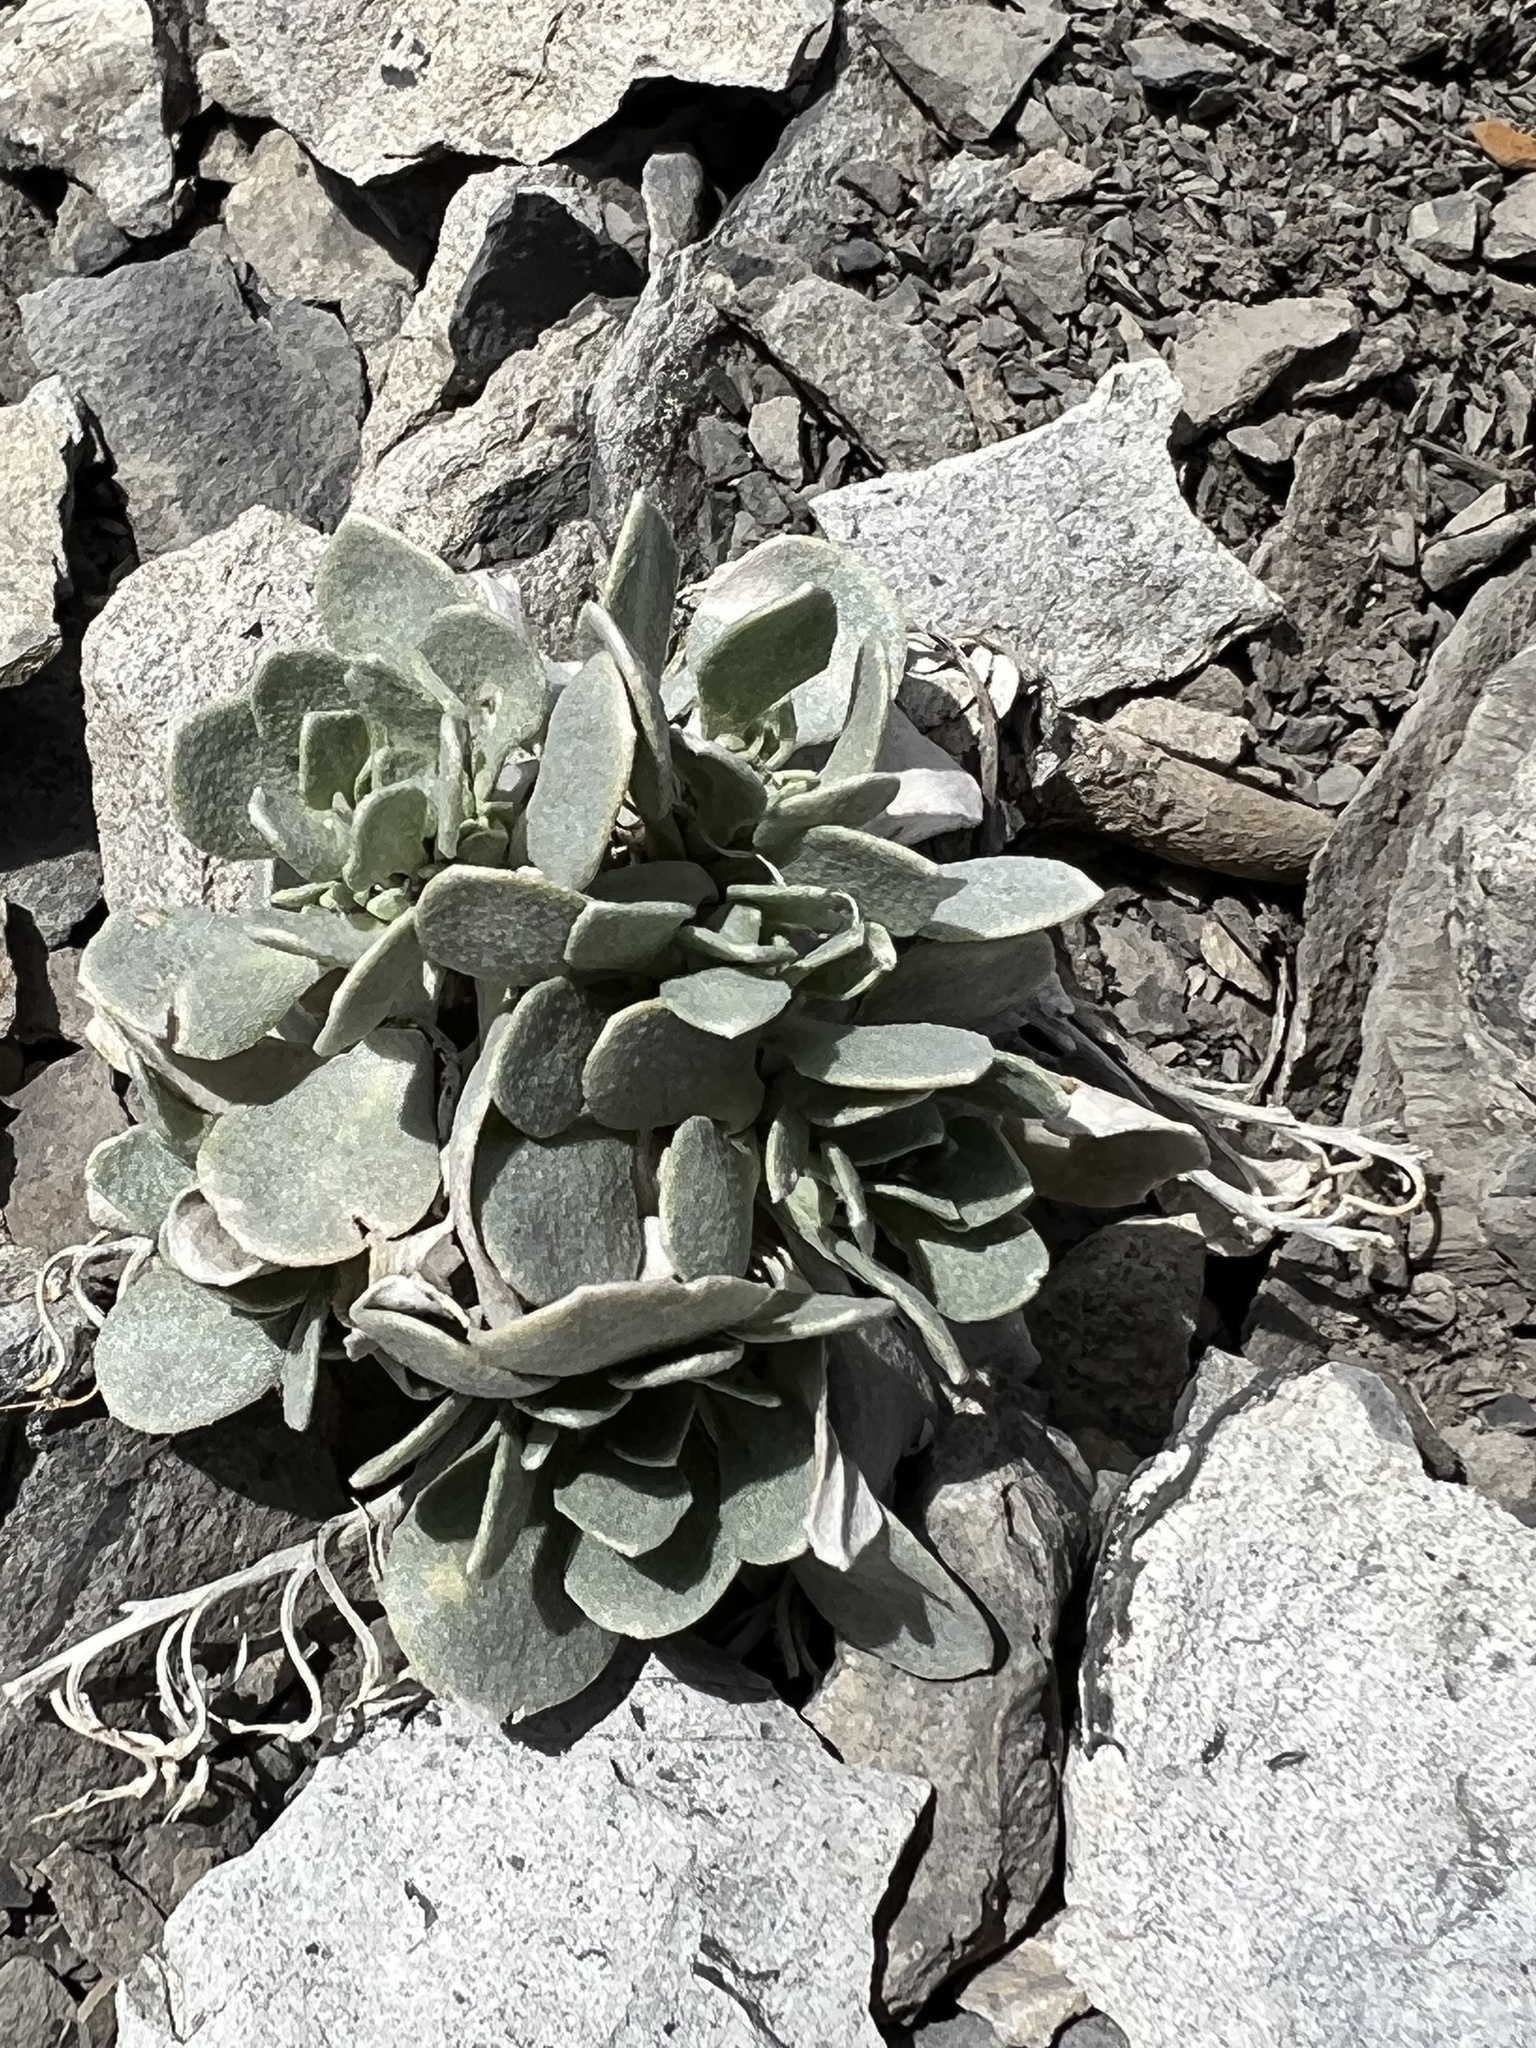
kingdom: Plantae
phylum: Tracheophyta
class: Magnoliopsida
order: Brassicales
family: Brassicaceae
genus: Physaria
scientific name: Physaria bellii
